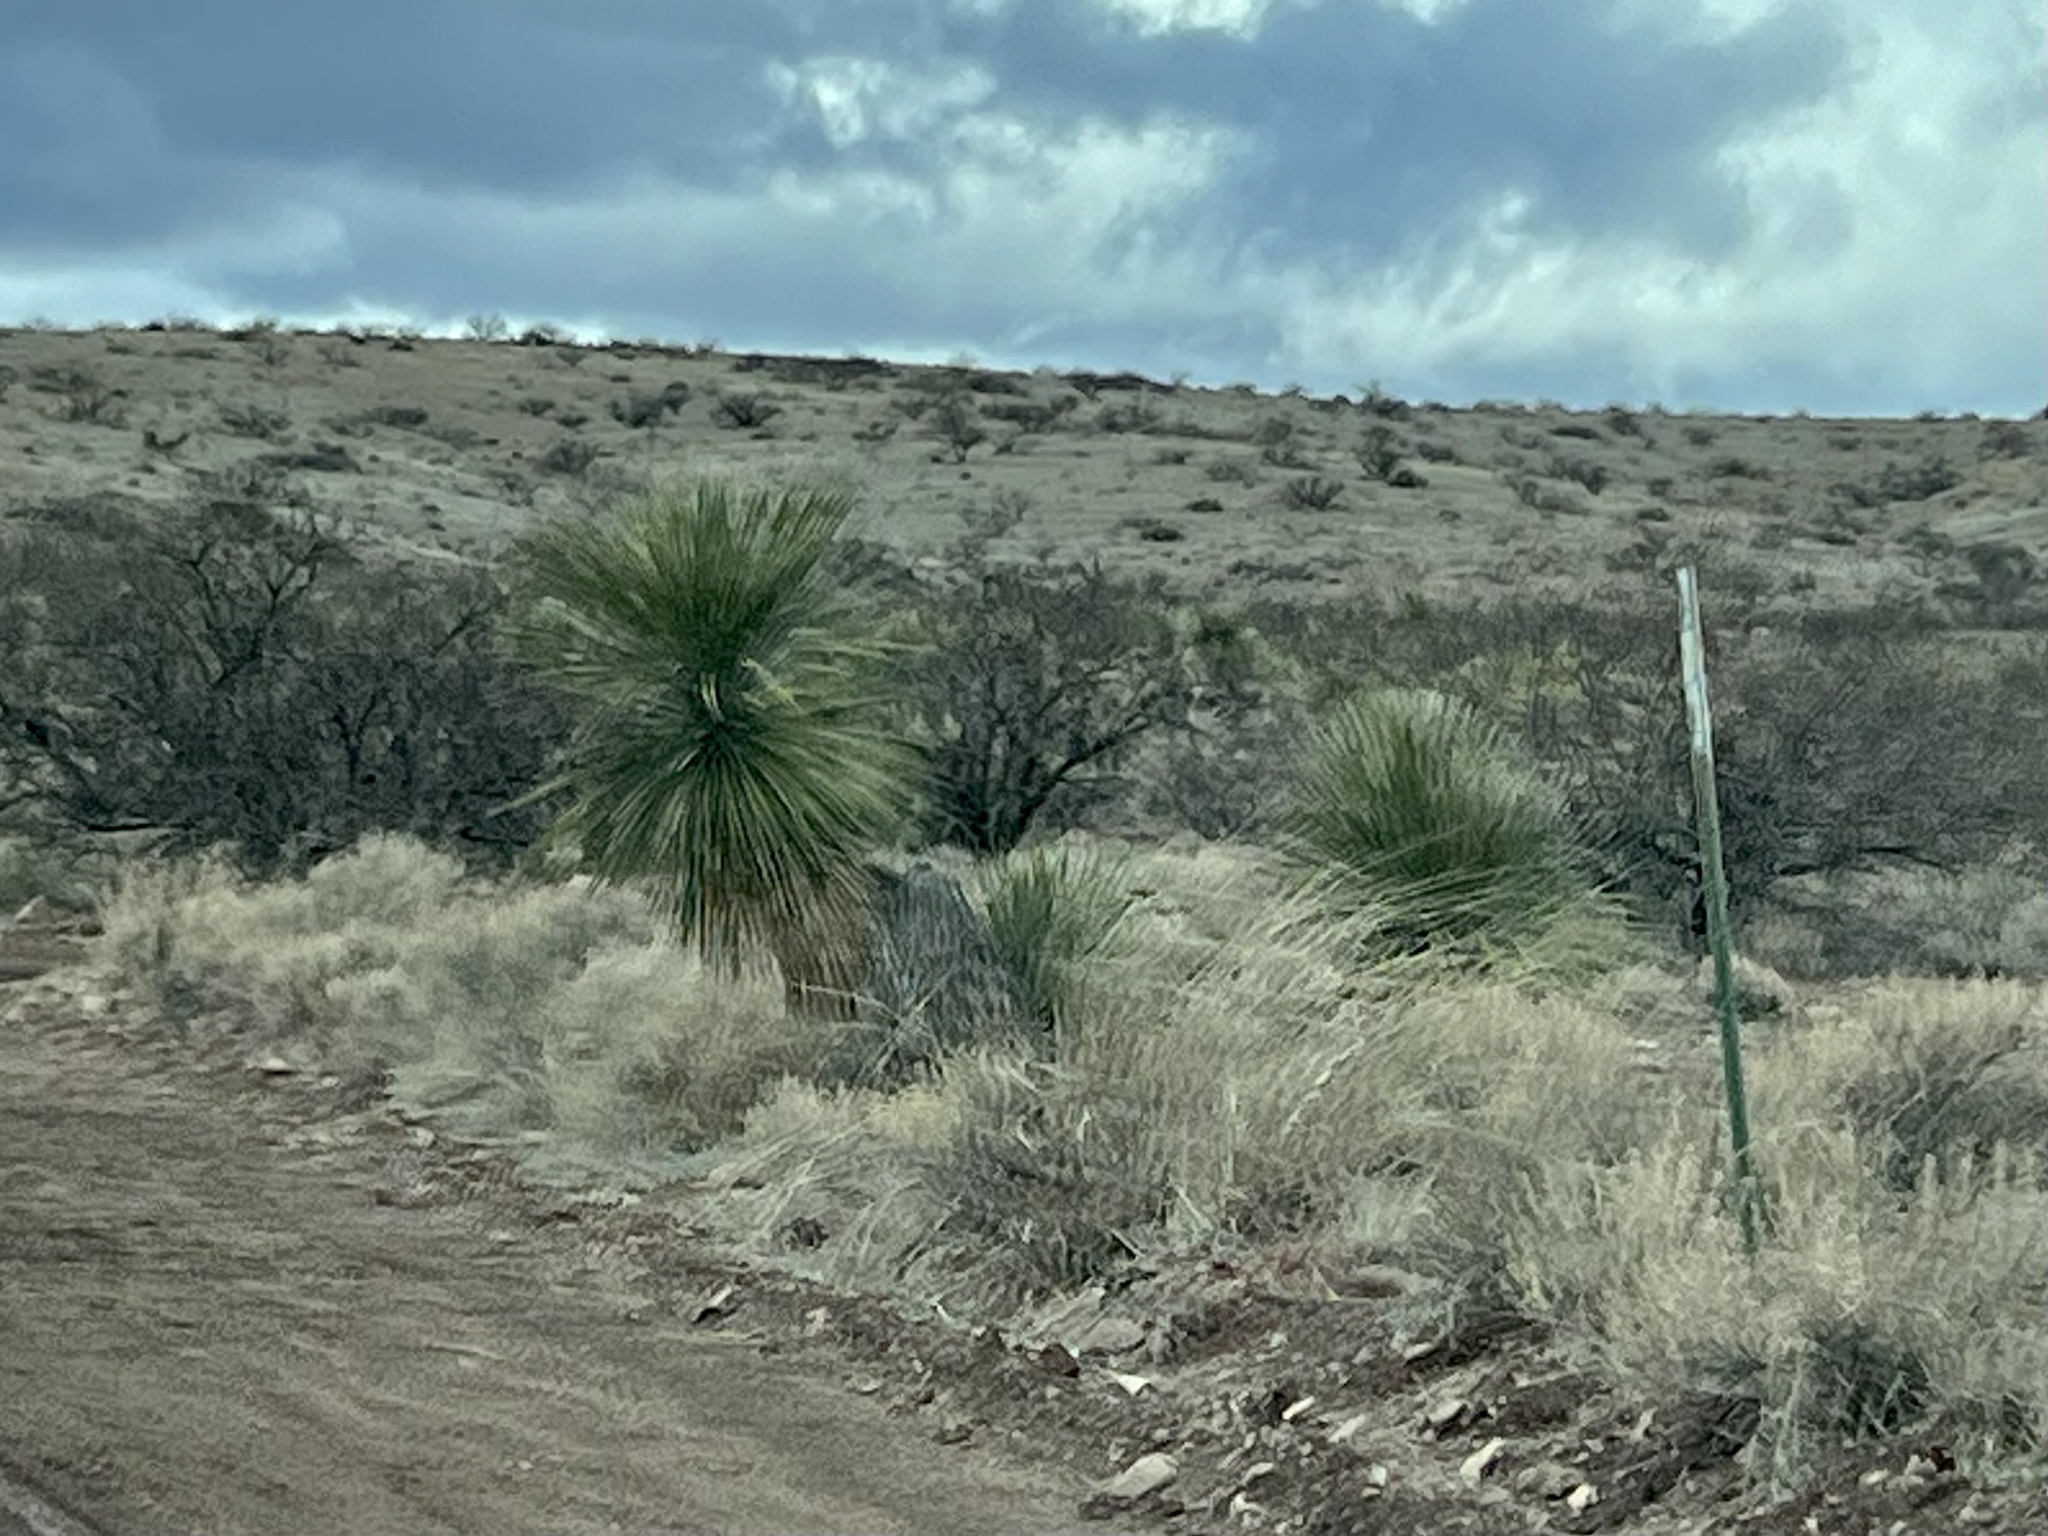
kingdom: Plantae
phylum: Tracheophyta
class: Liliopsida
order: Asparagales
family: Asparagaceae
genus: Yucca
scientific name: Yucca elata
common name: Palmella
